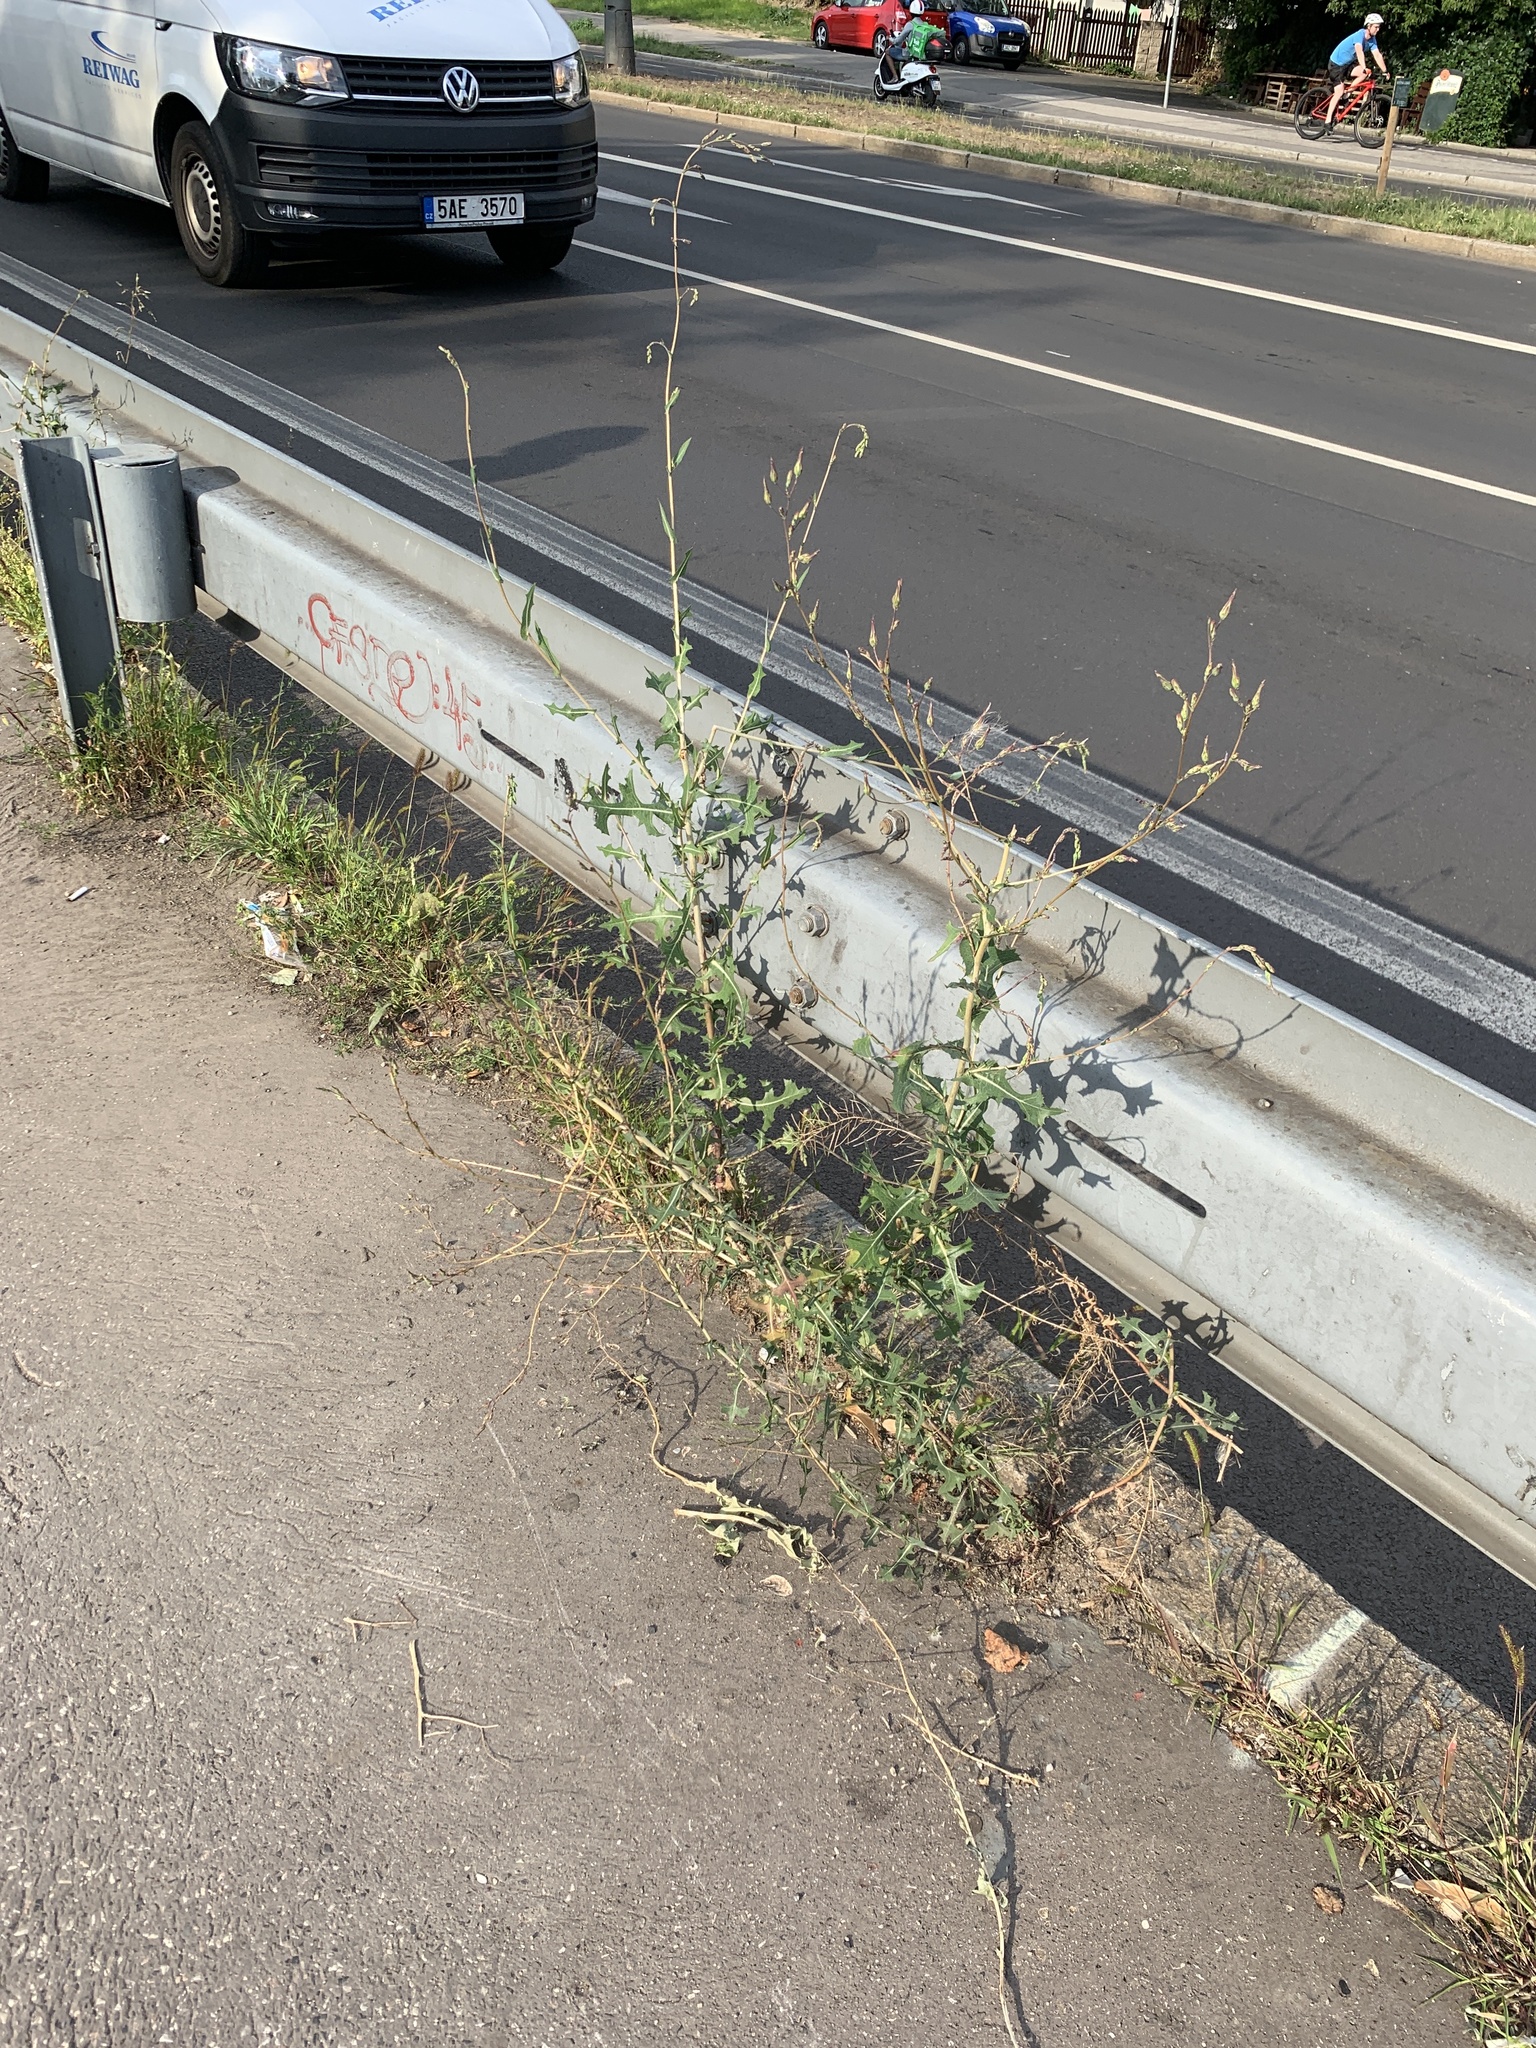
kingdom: Plantae
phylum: Tracheophyta
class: Magnoliopsida
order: Asterales
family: Asteraceae
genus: Lactuca
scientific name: Lactuca serriola
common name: Prickly lettuce
